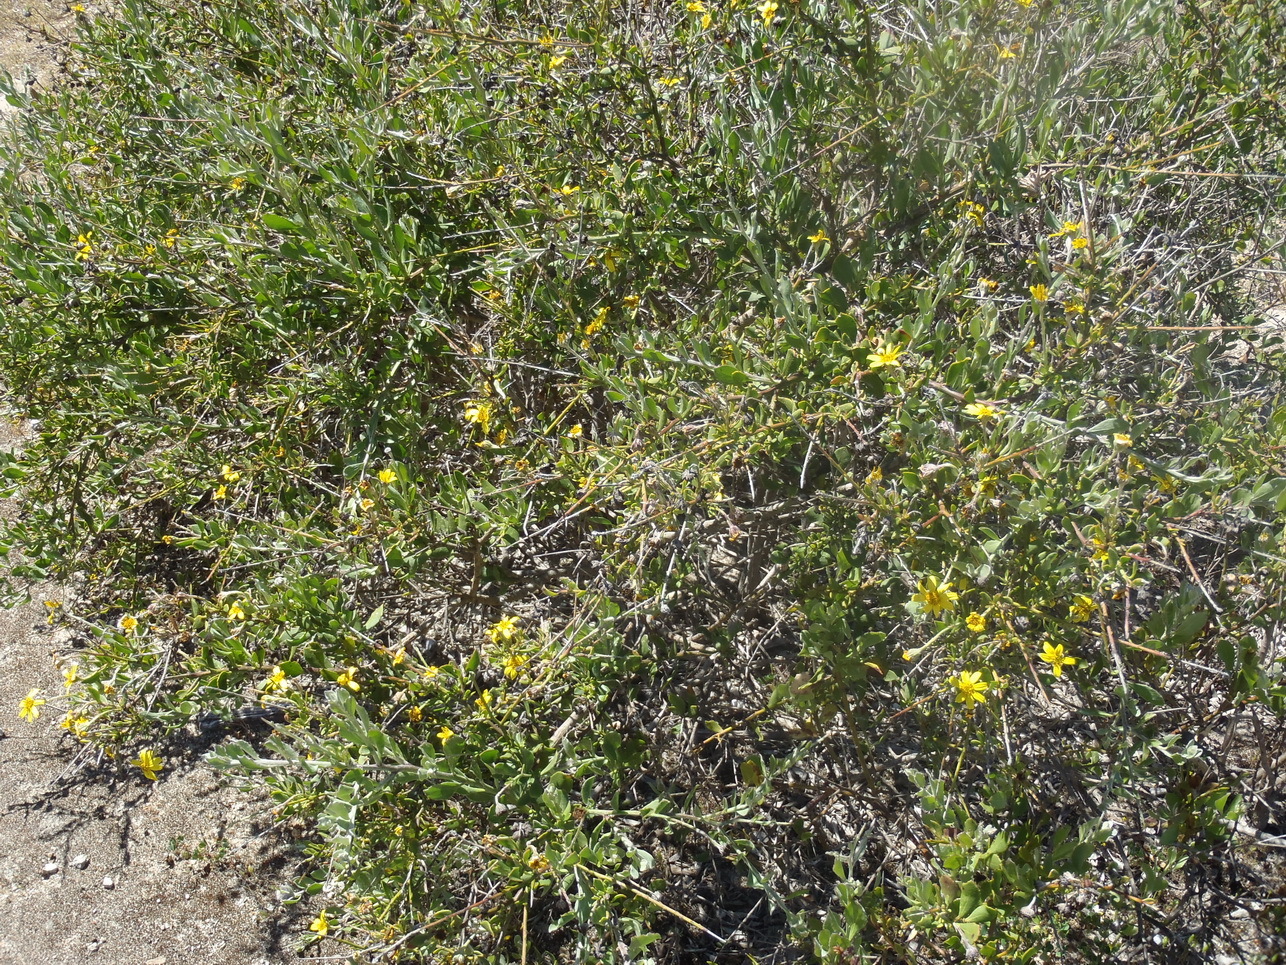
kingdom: Plantae
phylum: Tracheophyta
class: Magnoliopsida
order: Asterales
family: Asteraceae
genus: Osteospermum
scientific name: Osteospermum incanum
